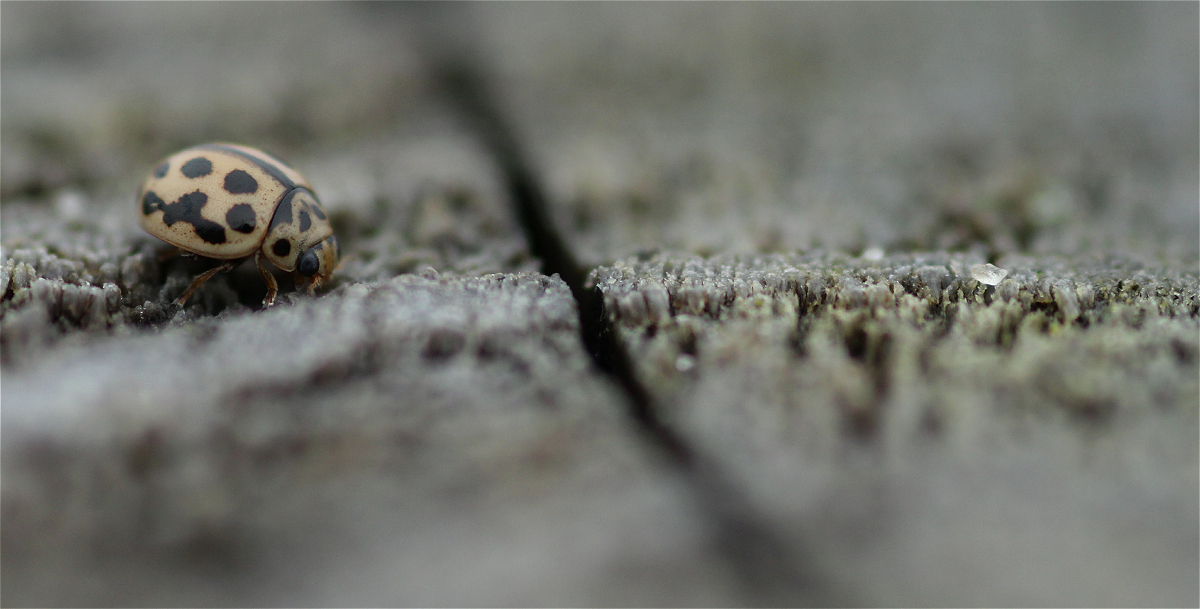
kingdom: Animalia
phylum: Arthropoda
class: Insecta
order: Coleoptera
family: Coccinellidae
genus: Tytthaspis
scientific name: Tytthaspis sedecimpunctata
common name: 16-spot ladybird
